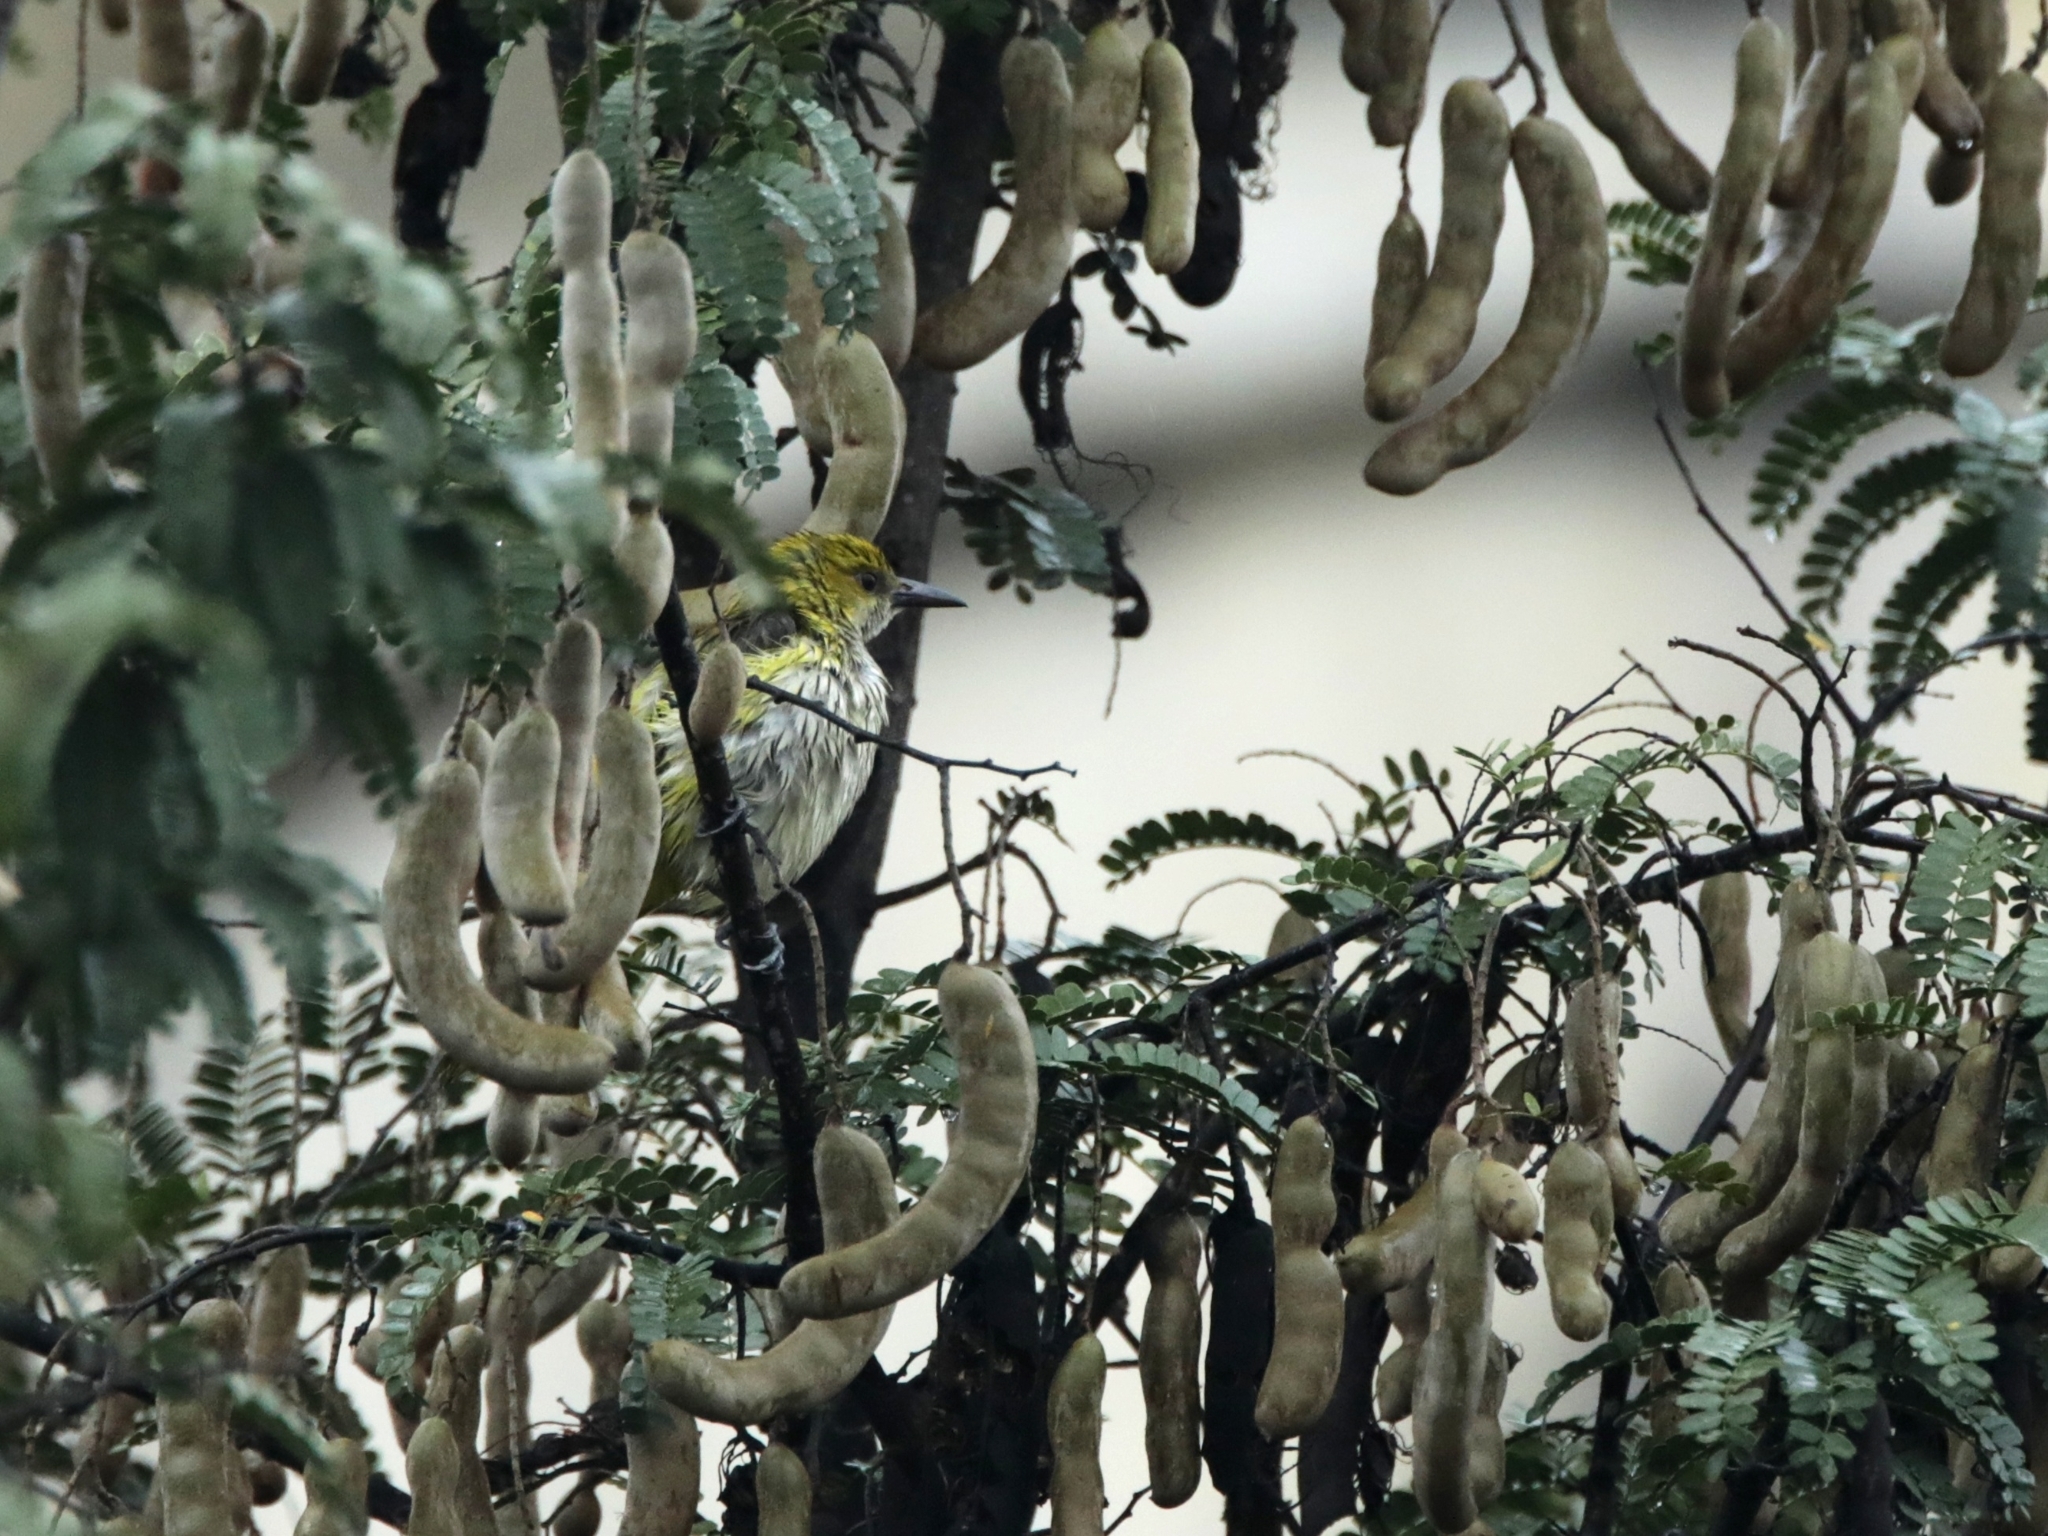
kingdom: Animalia
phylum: Chordata
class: Aves
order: Passeriformes
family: Oriolidae
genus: Oriolus
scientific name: Oriolus kundoo
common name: Indian golden oriole
